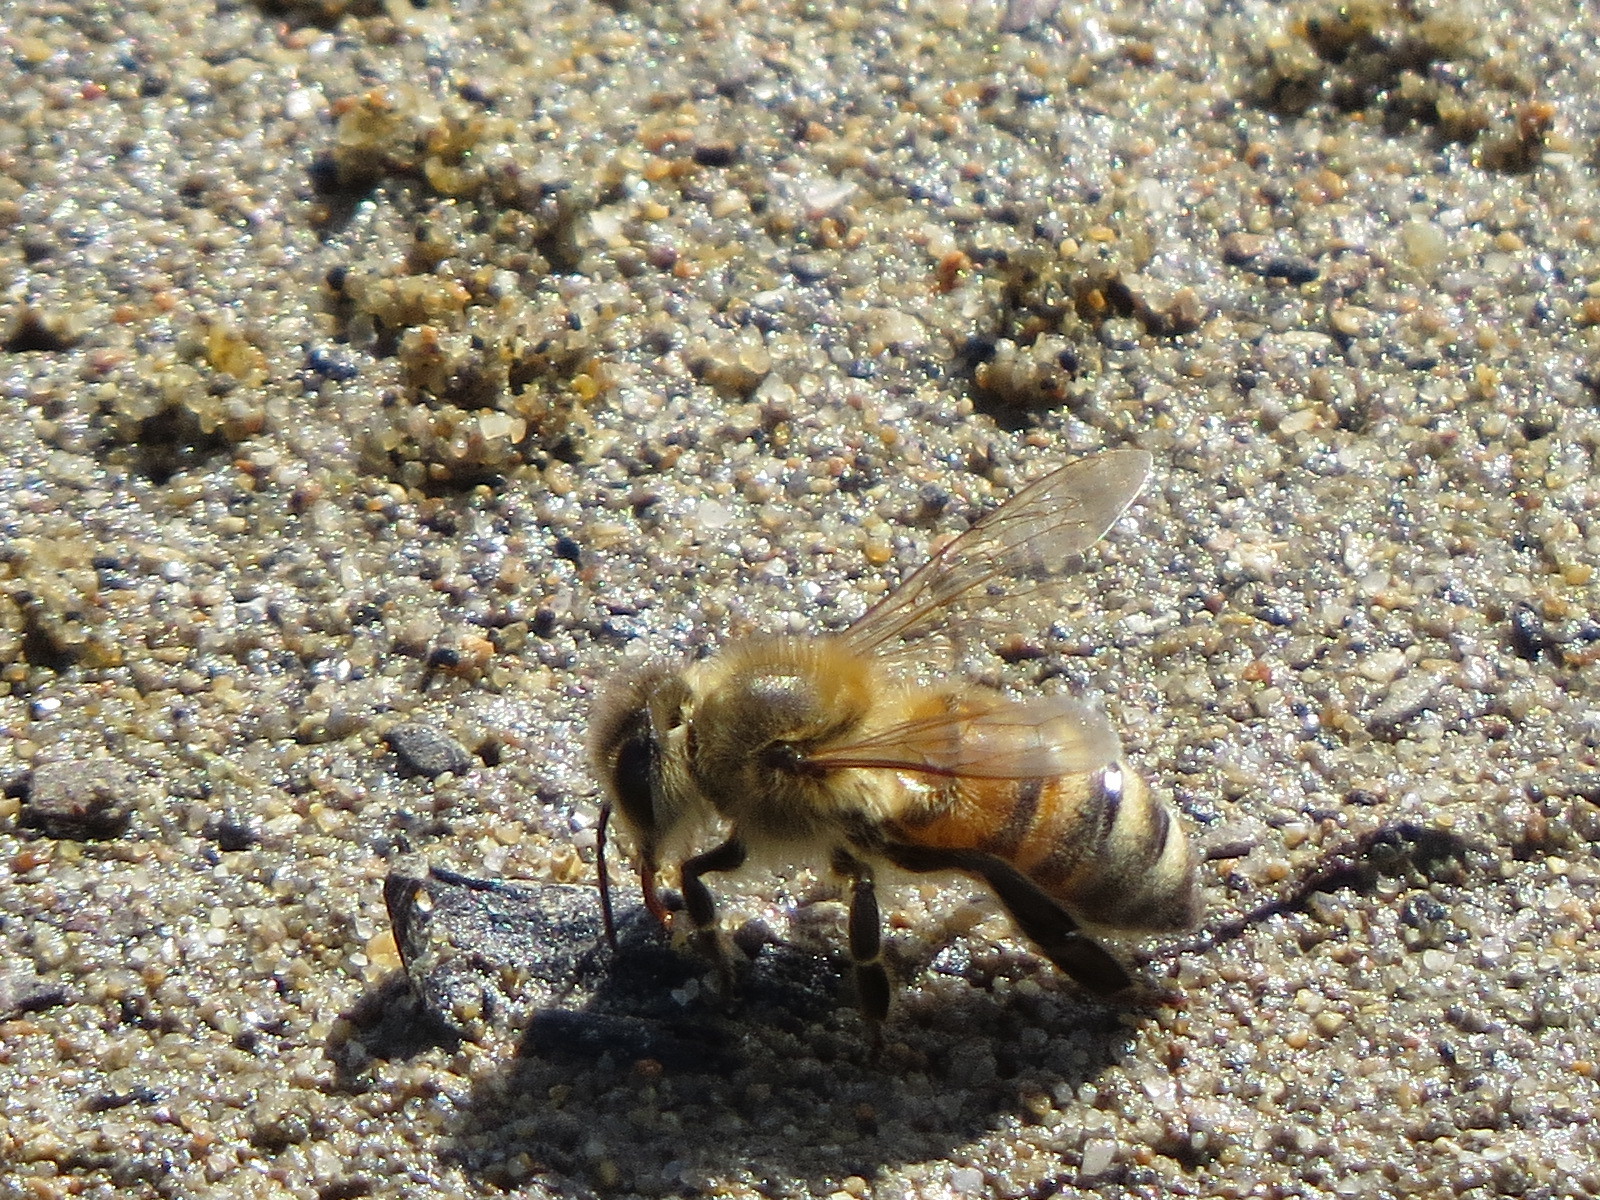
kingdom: Animalia
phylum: Arthropoda
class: Insecta
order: Hymenoptera
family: Apidae
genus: Apis
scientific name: Apis mellifera
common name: Honey bee
